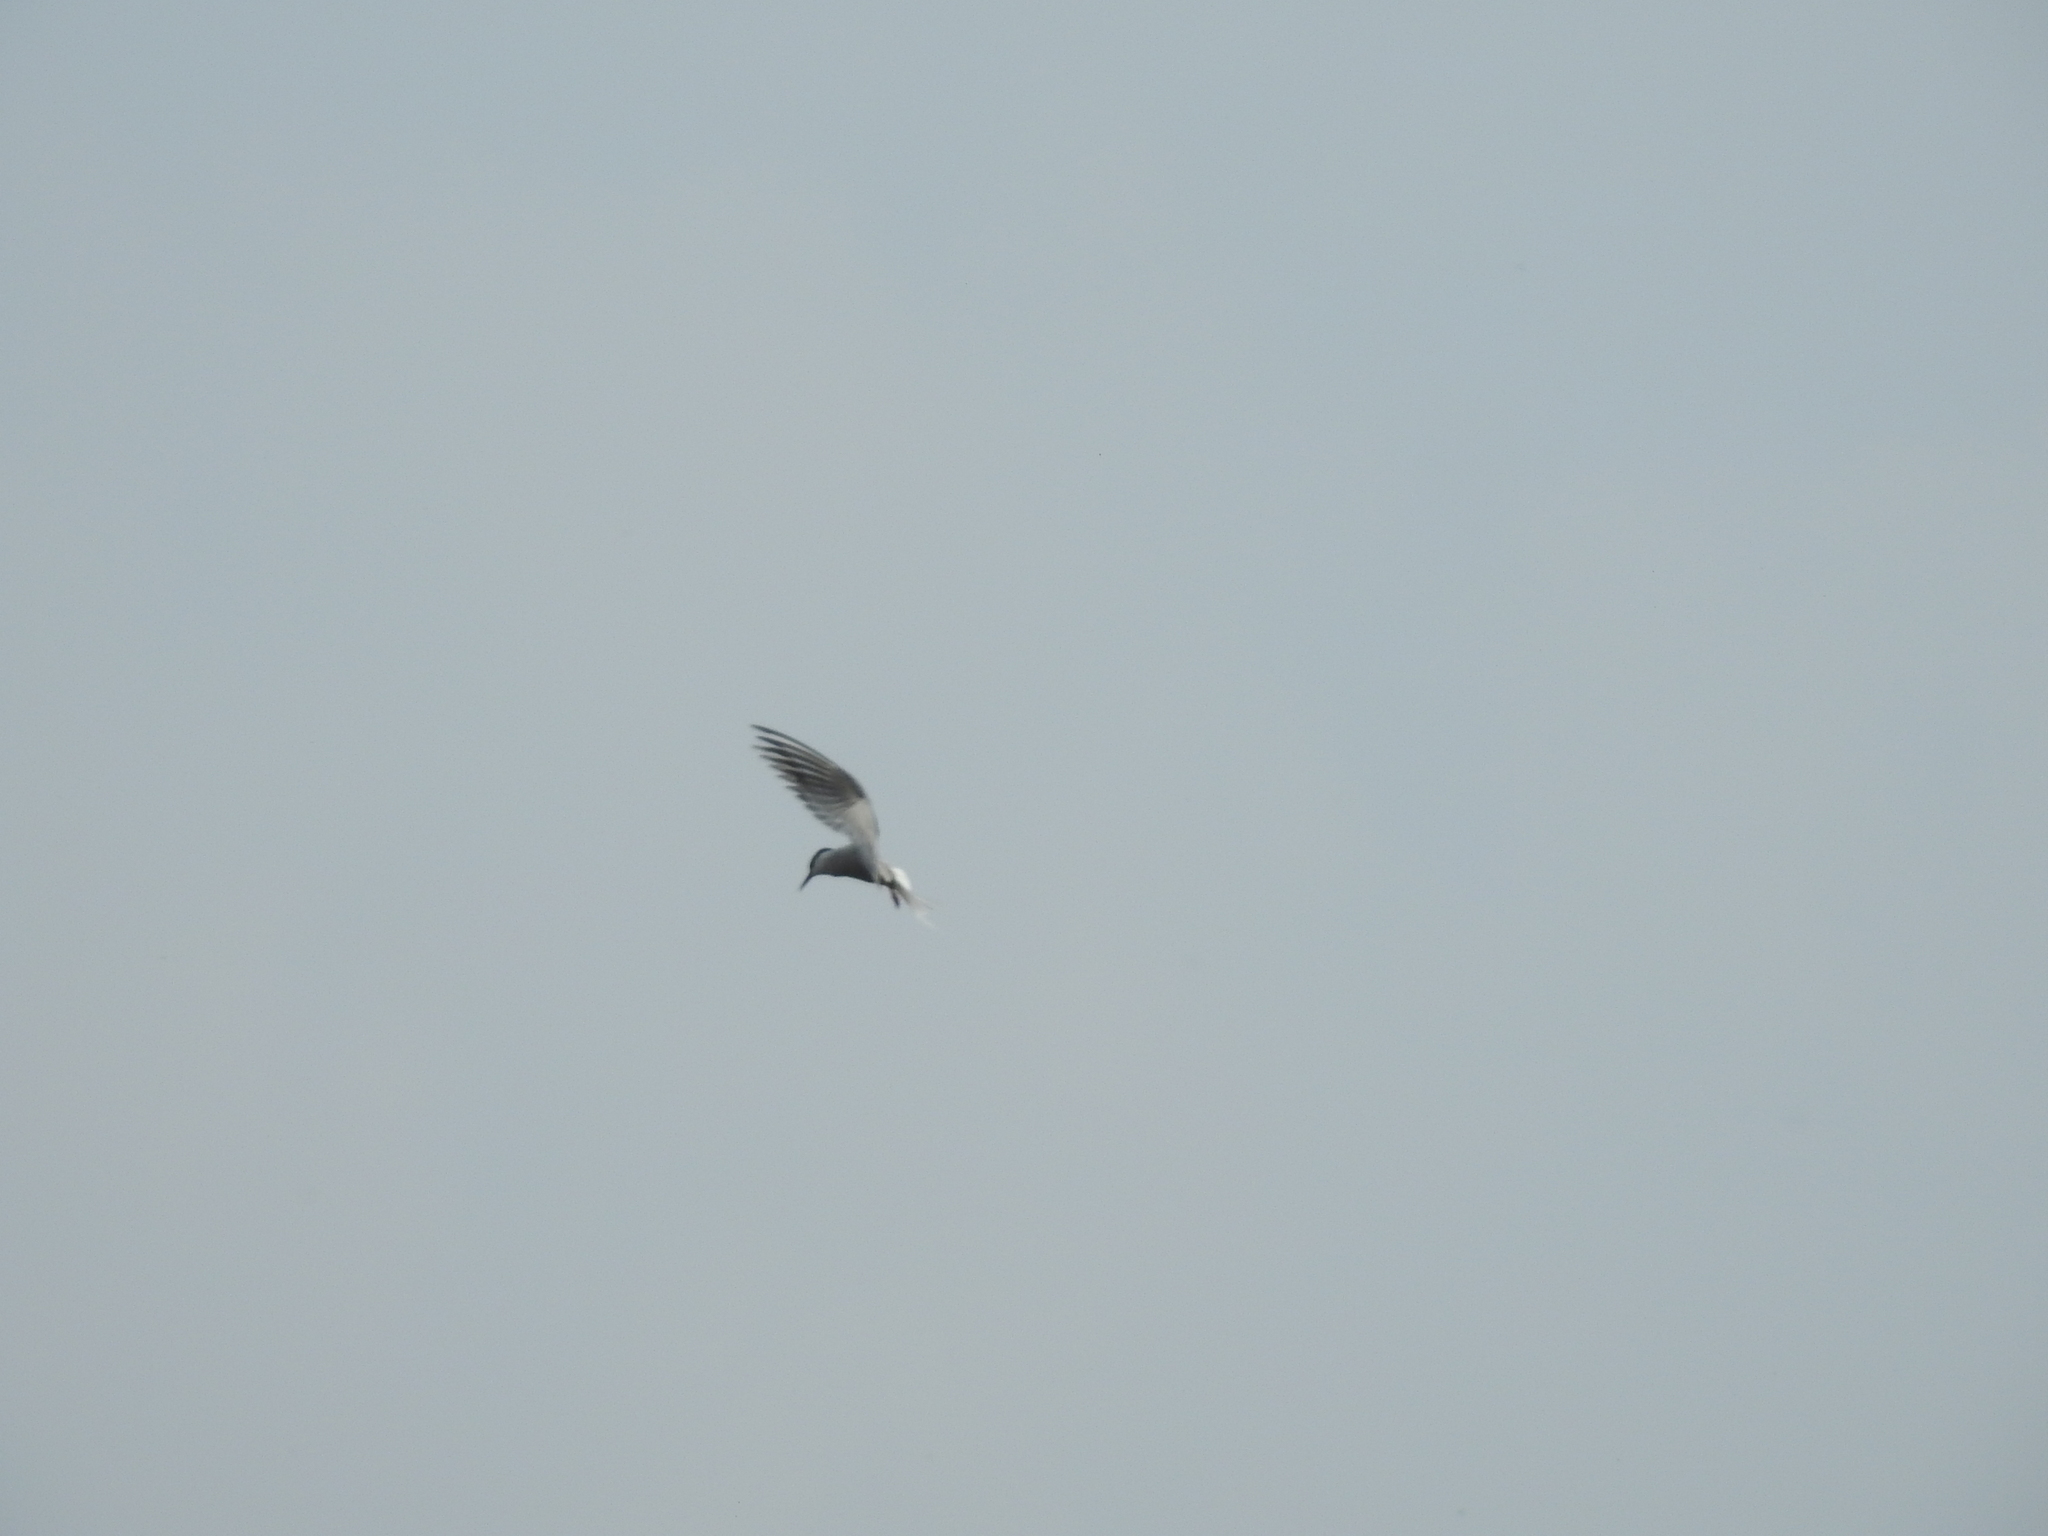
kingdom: Animalia
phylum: Chordata
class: Aves
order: Charadriiformes
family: Laridae
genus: Sterna
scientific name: Sterna hirundo
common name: Common tern
